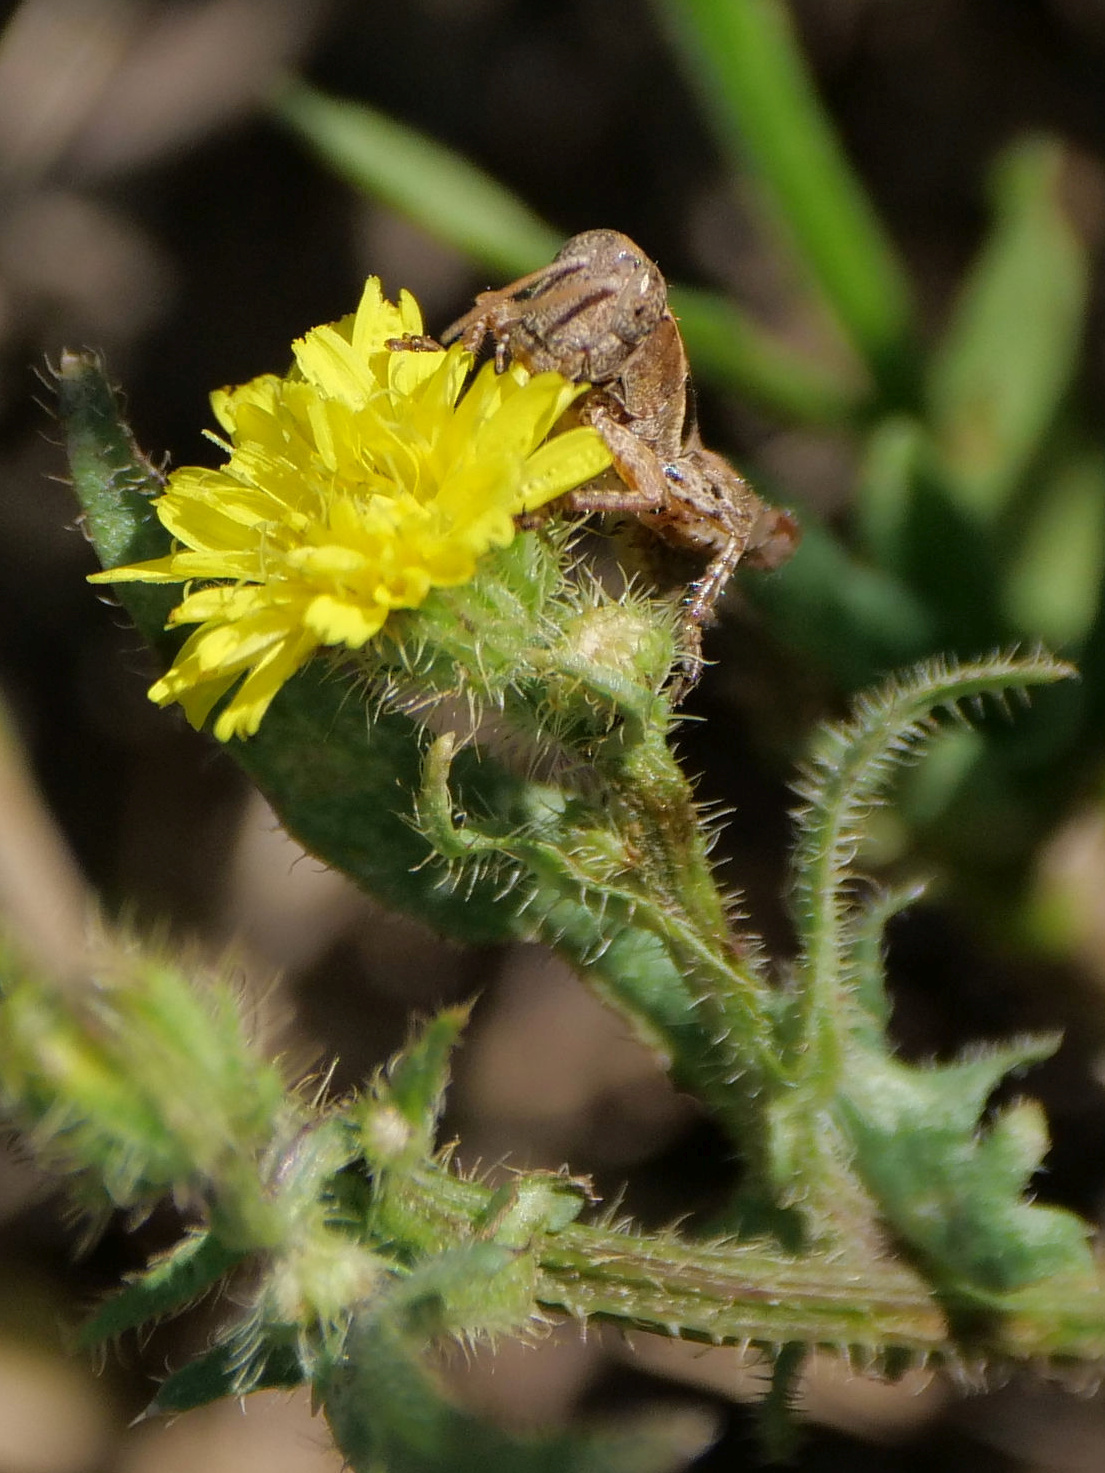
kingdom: Animalia
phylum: Arthropoda
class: Insecta
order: Orthoptera
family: Acrididae
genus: Pezotettix
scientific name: Pezotettix giornae
